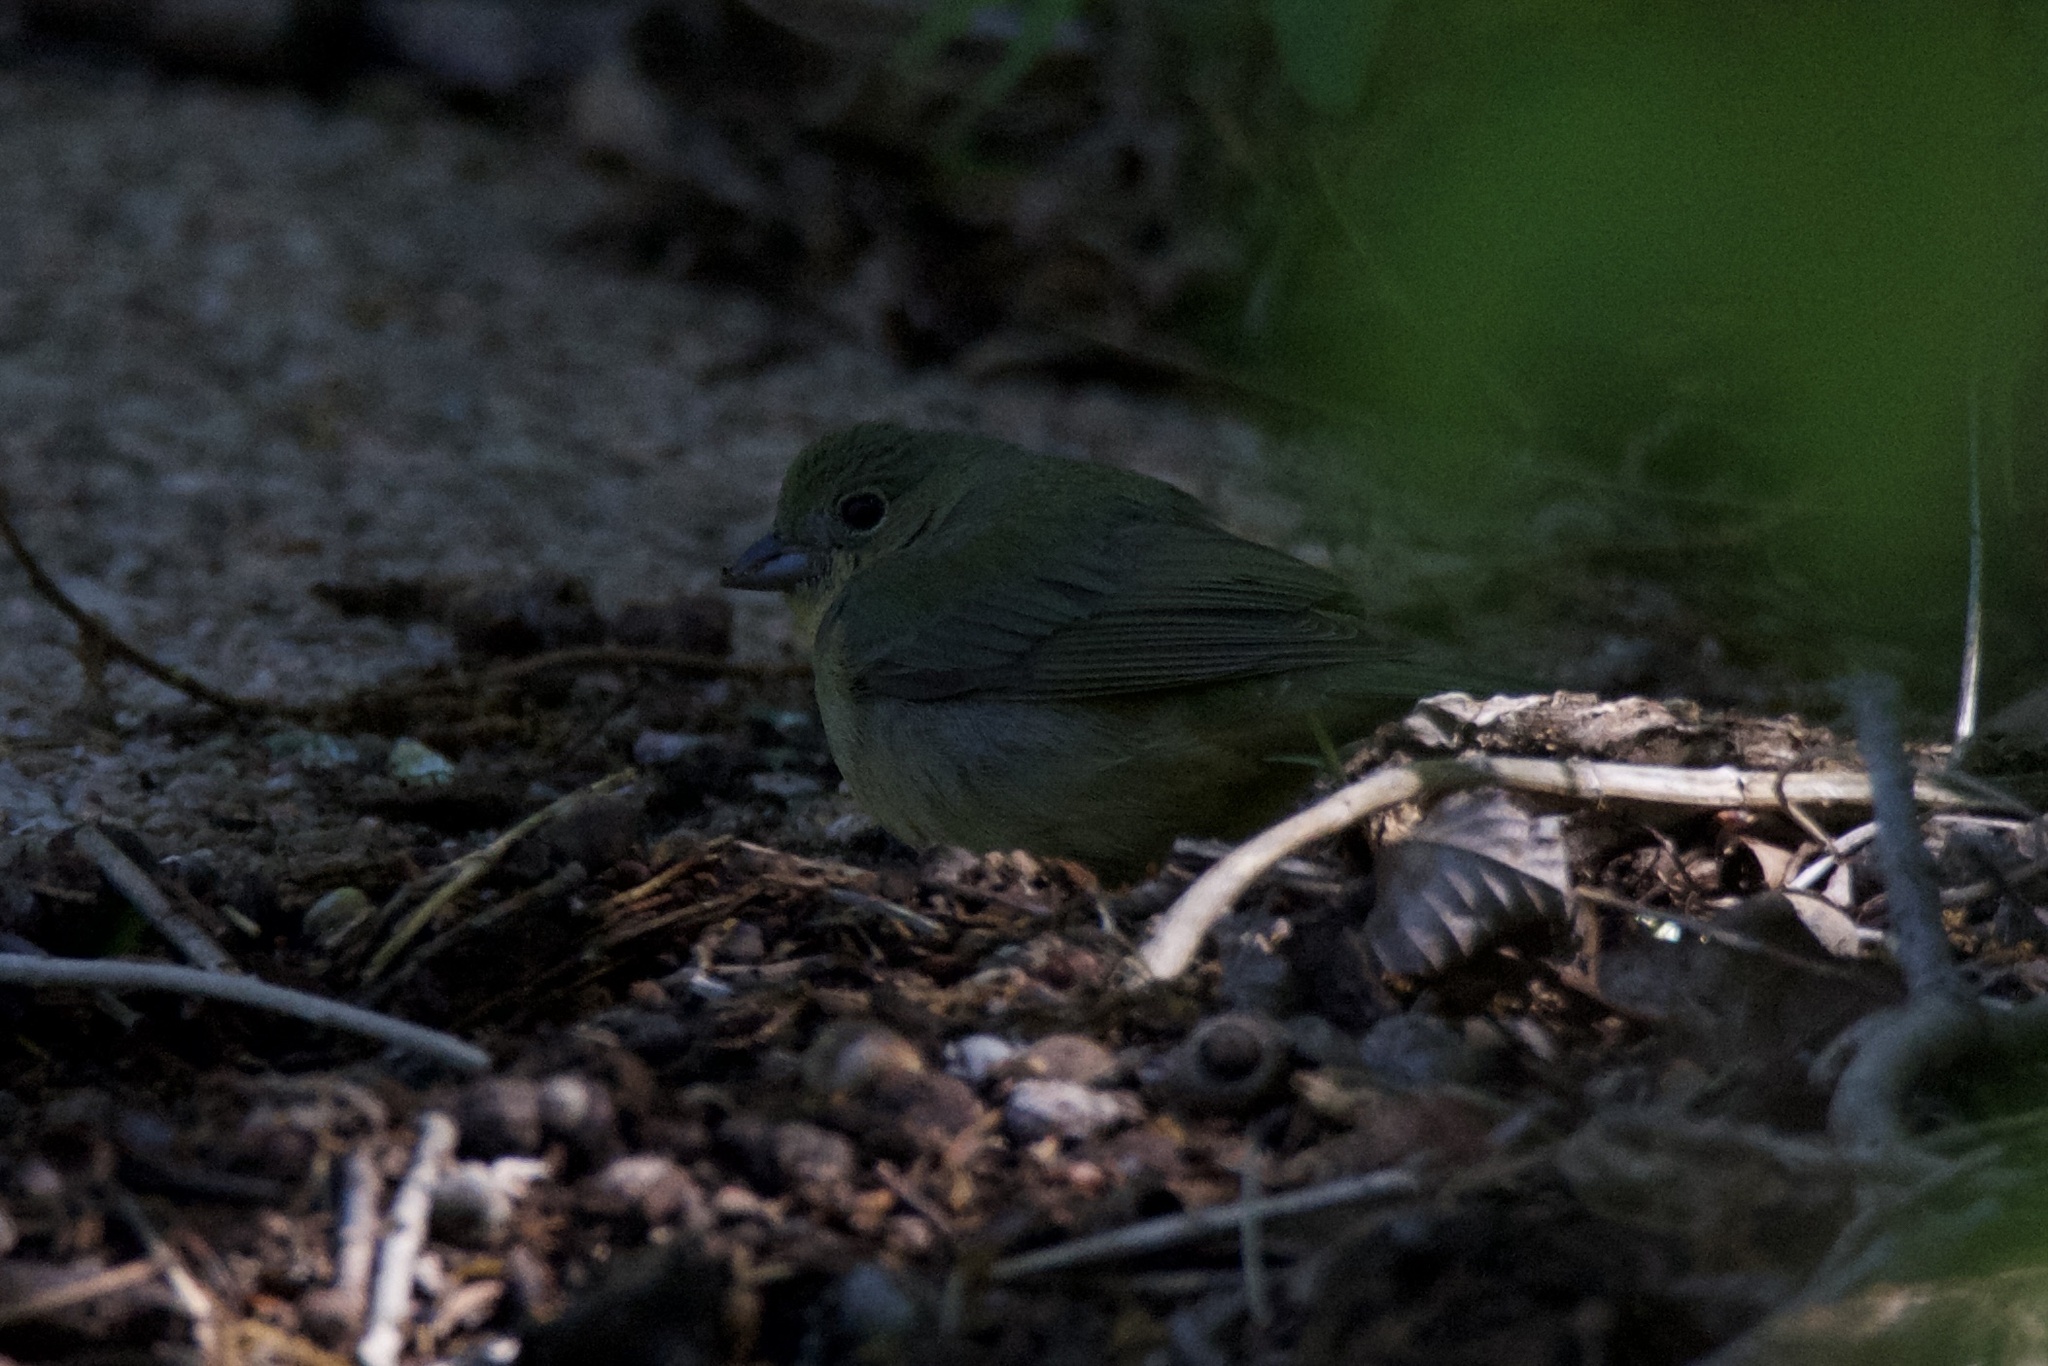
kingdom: Animalia
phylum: Chordata
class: Aves
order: Passeriformes
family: Cardinalidae
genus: Passerina
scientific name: Passerina ciris
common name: Painted bunting
